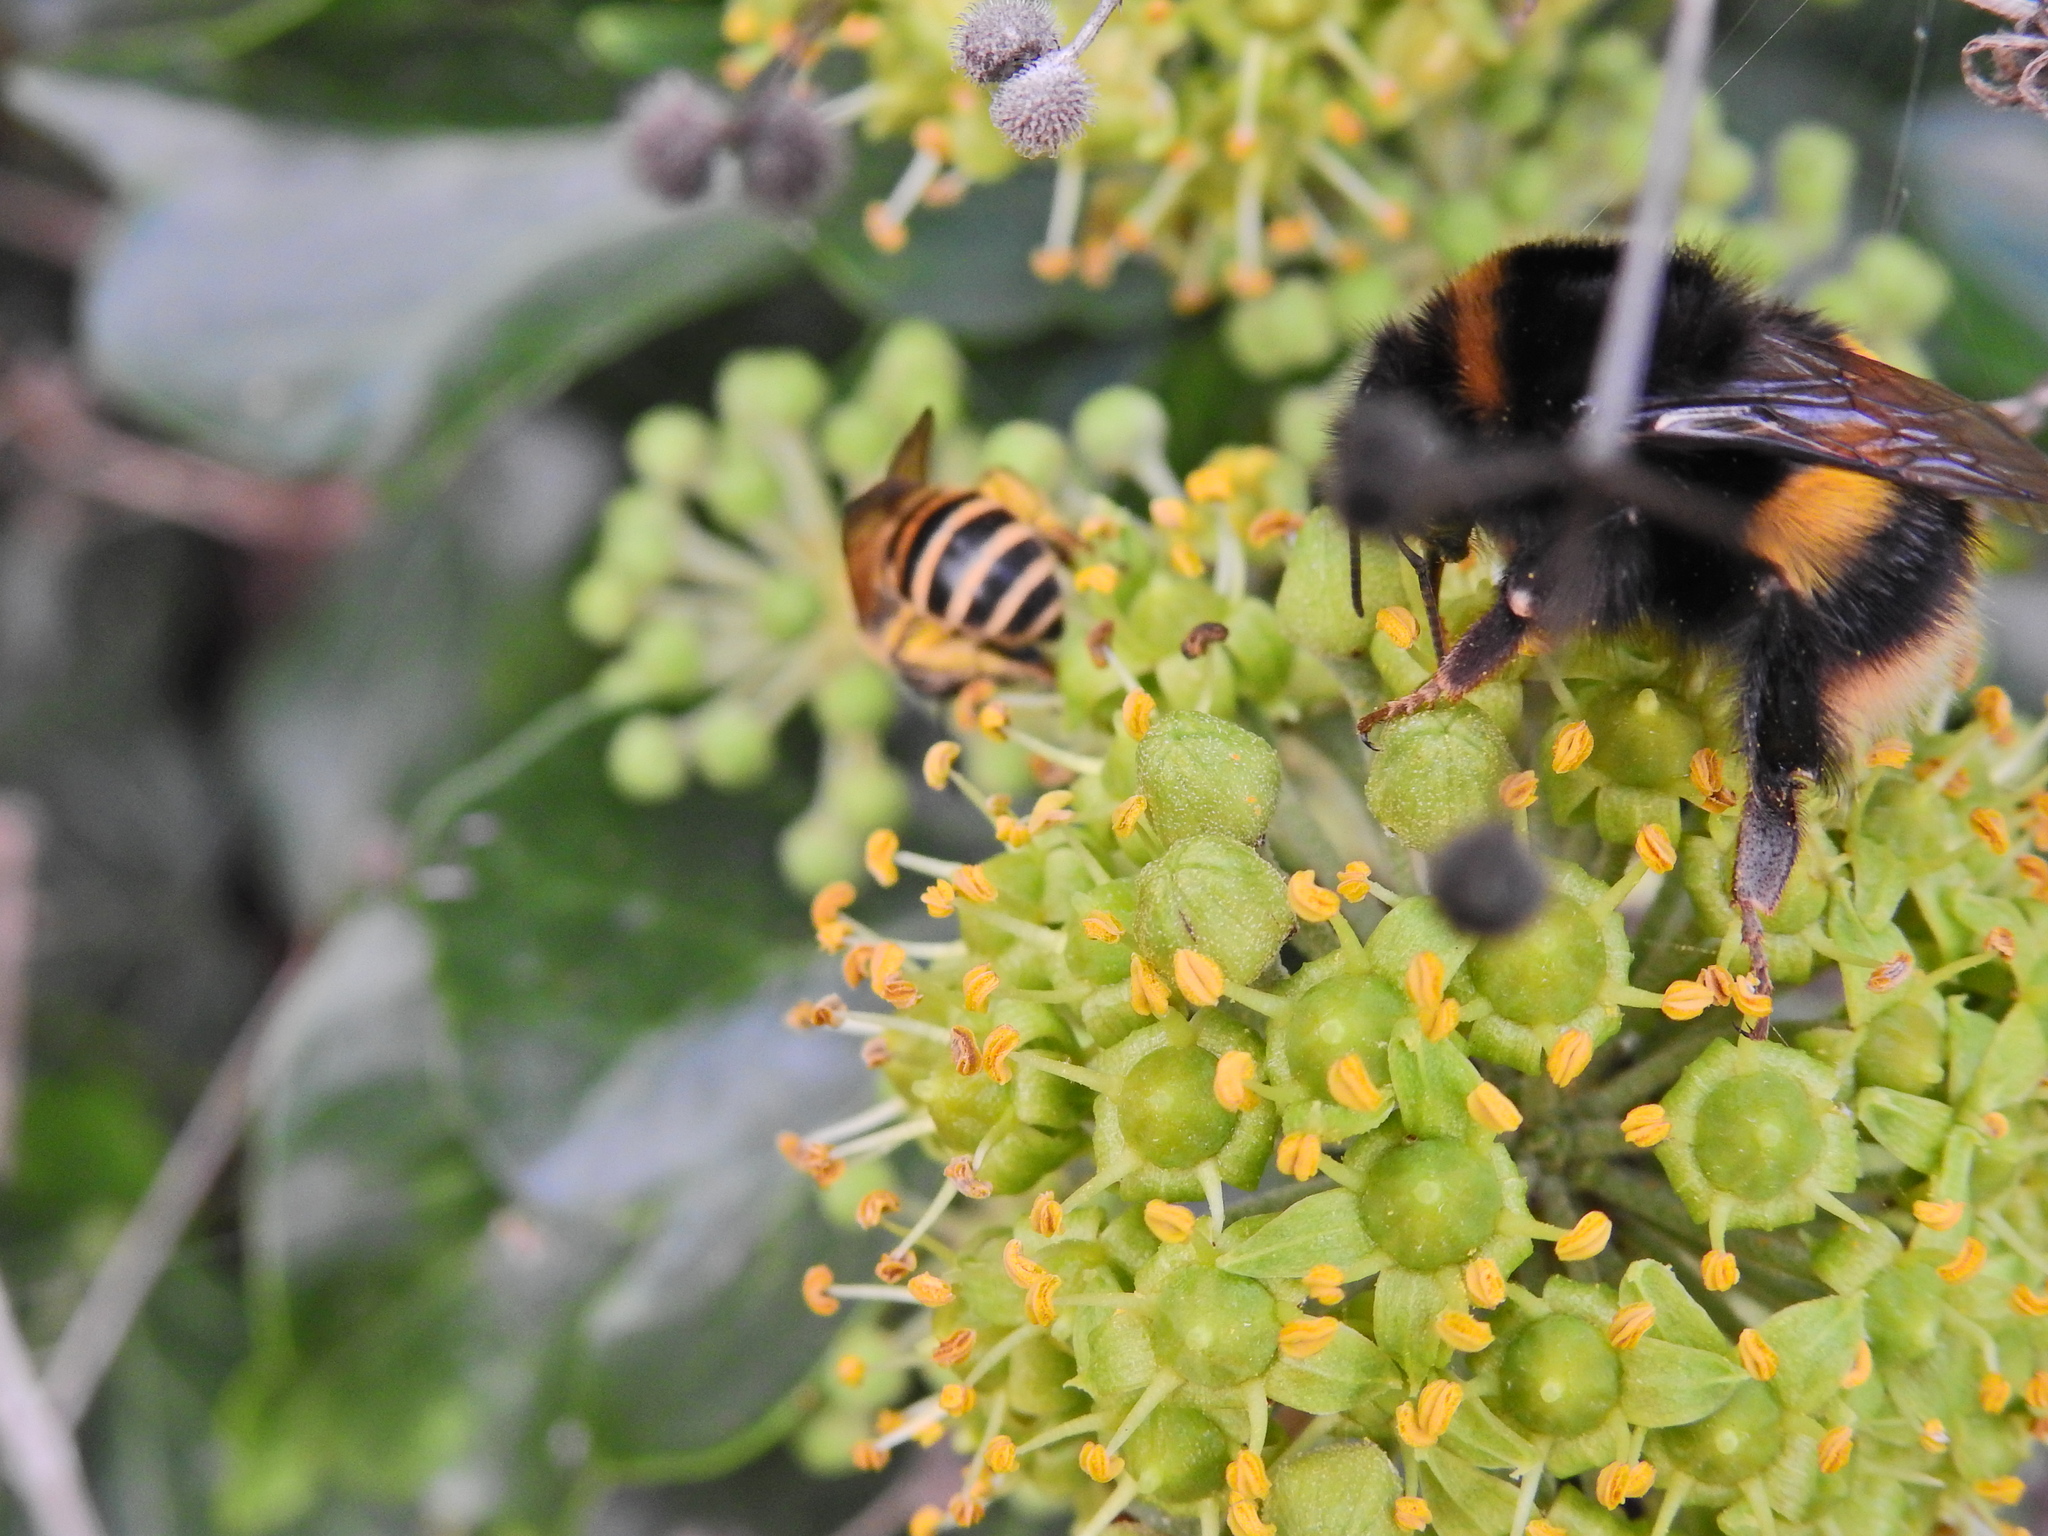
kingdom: Animalia
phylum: Arthropoda
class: Insecta
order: Hymenoptera
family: Apidae
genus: Bombus
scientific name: Bombus terrestris
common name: Buff-tailed bumblebee
